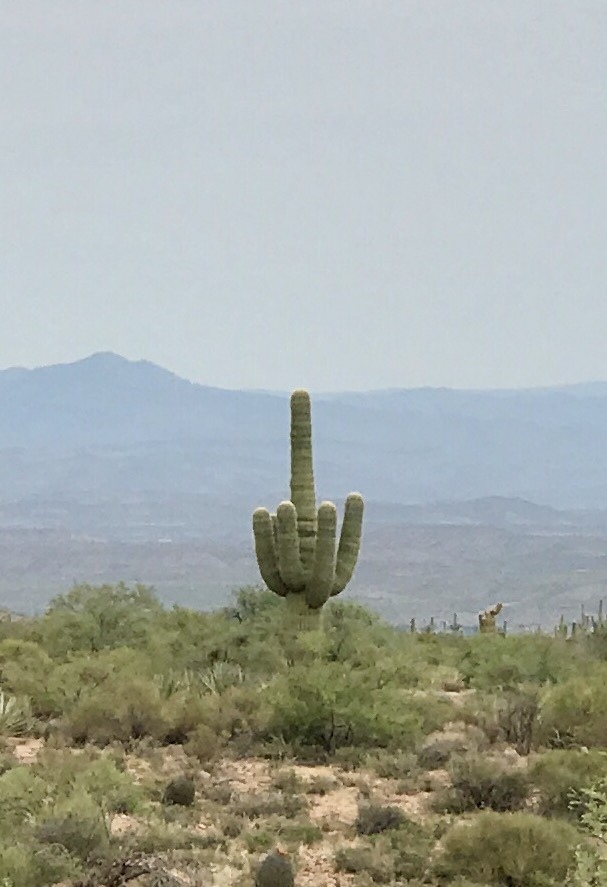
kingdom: Plantae
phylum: Tracheophyta
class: Magnoliopsida
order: Caryophyllales
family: Cactaceae
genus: Carnegiea
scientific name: Carnegiea gigantea
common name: Saguaro
